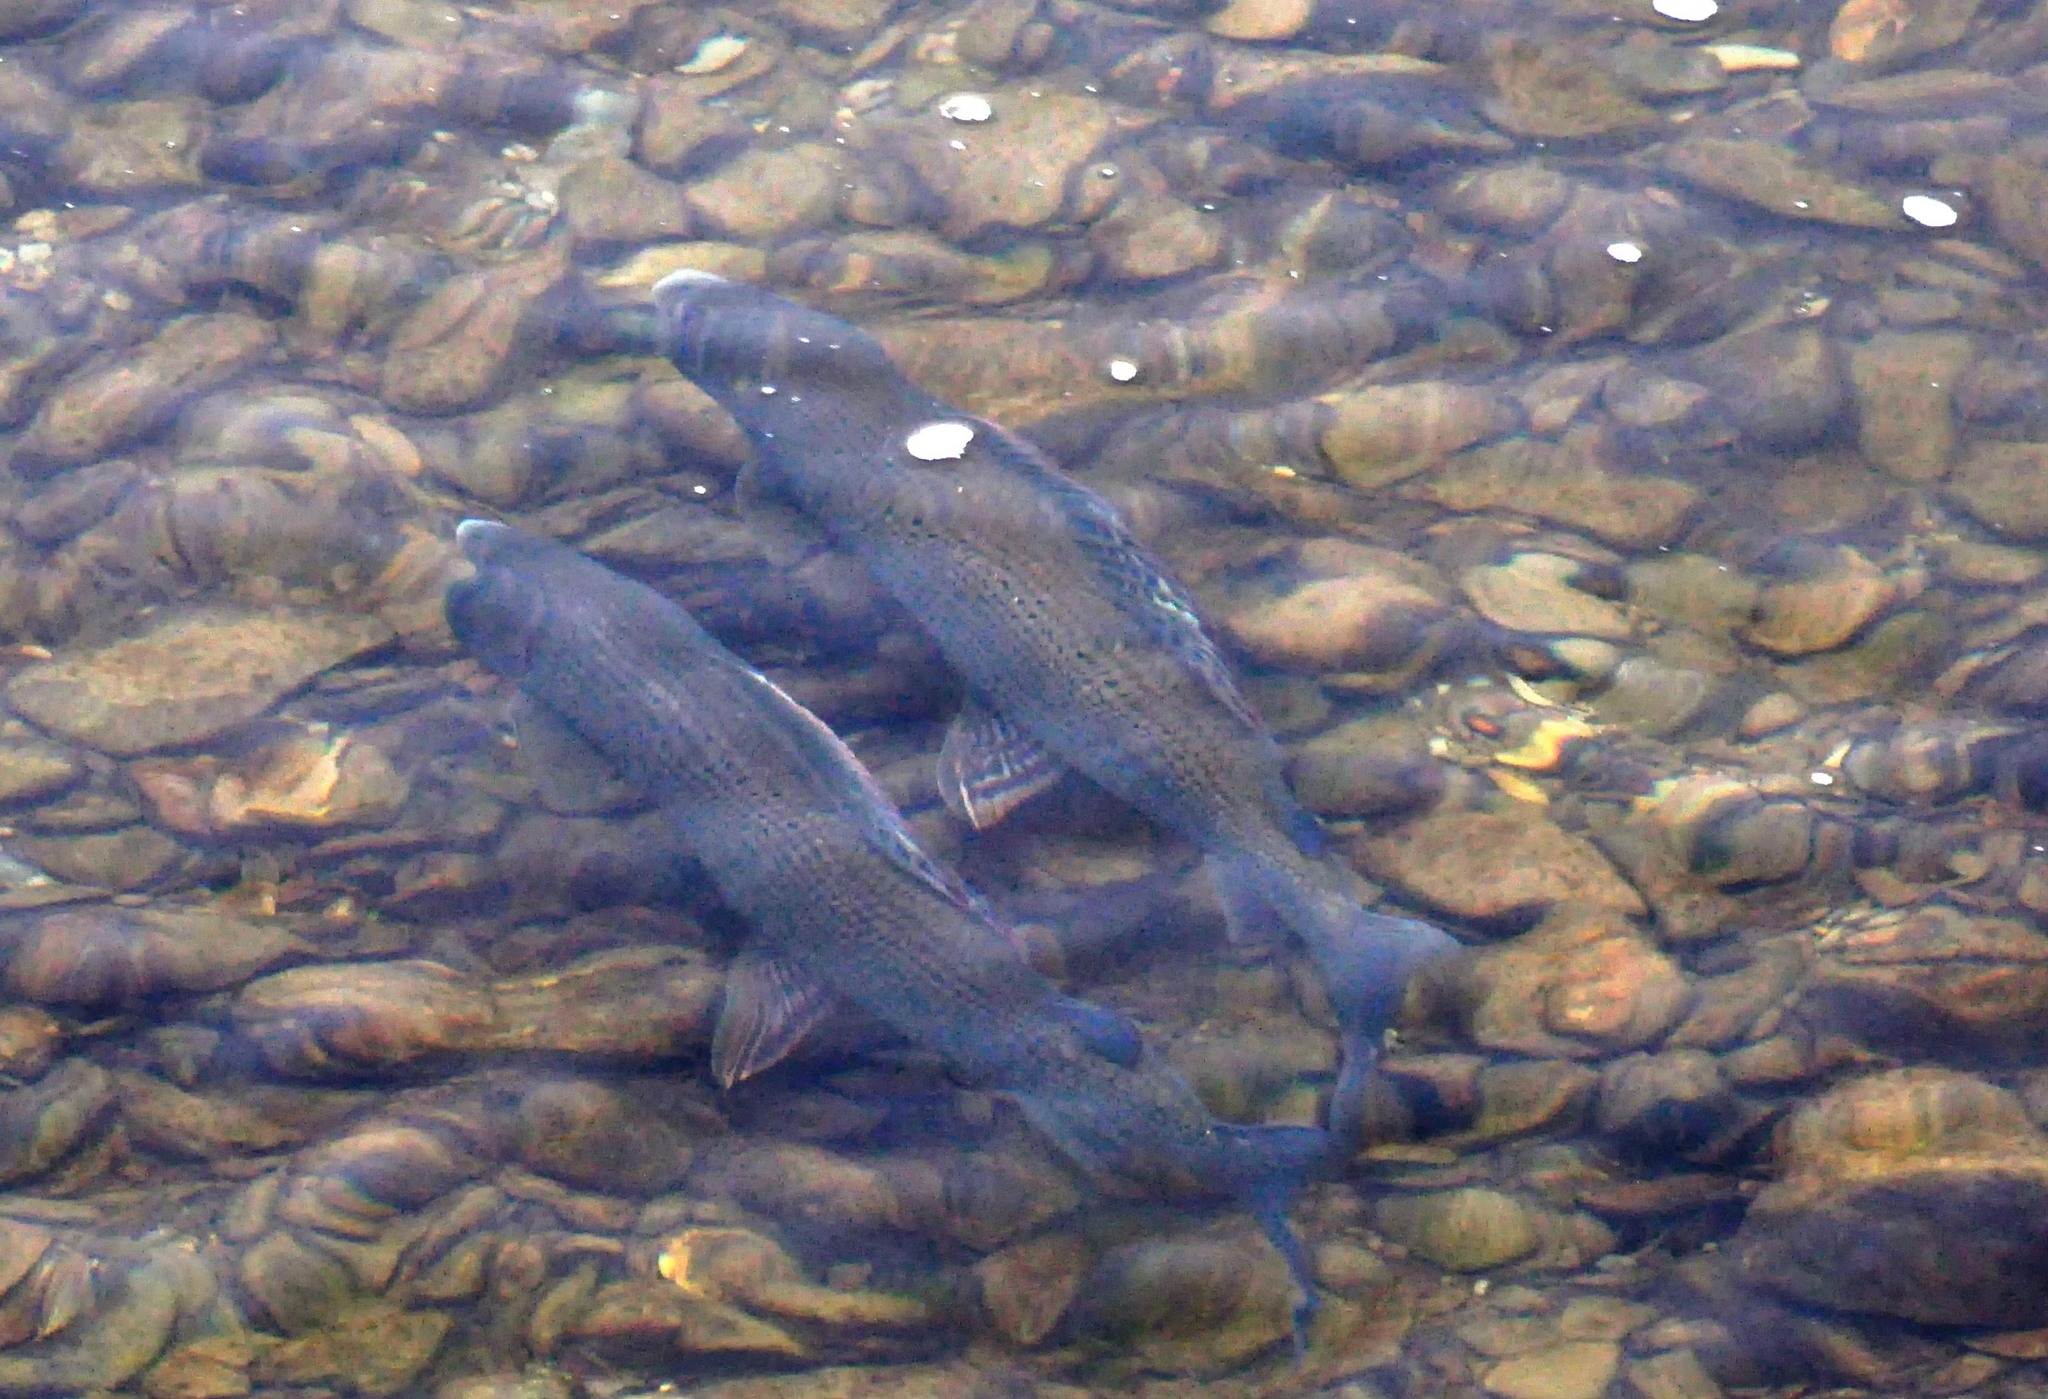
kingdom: Animalia
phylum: Chordata
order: Salmoniformes
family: Salmonidae
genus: Thymallus
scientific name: Thymallus thymallus
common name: Grayling
